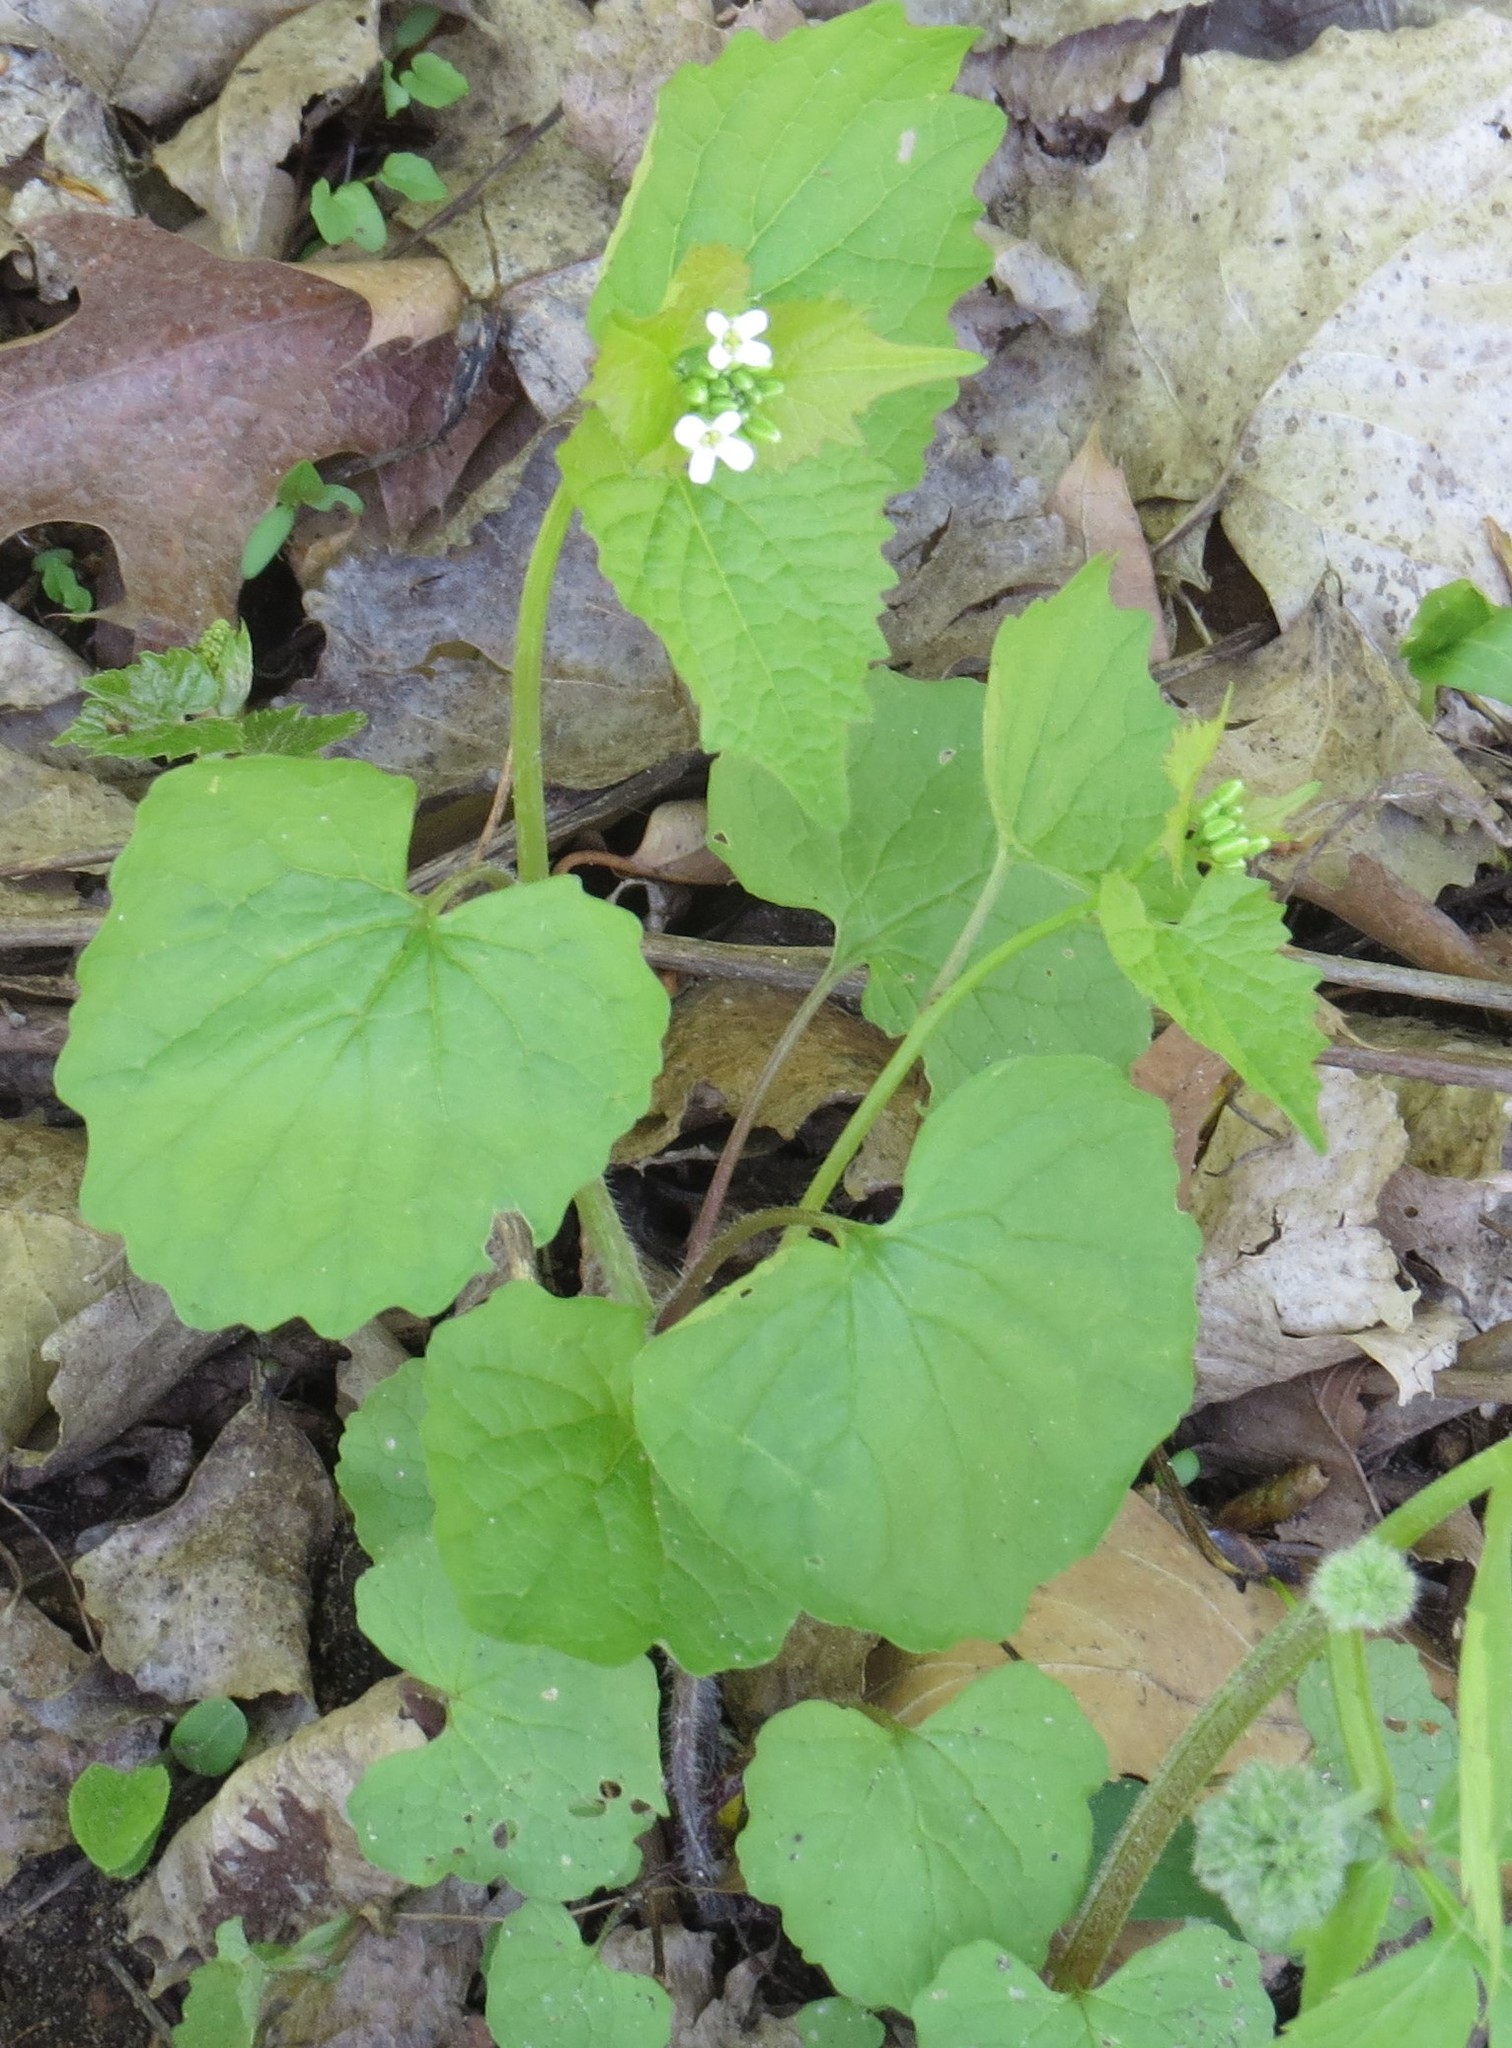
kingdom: Plantae
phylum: Tracheophyta
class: Magnoliopsida
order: Brassicales
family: Brassicaceae
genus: Alliaria
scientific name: Alliaria petiolata
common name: Garlic mustard
